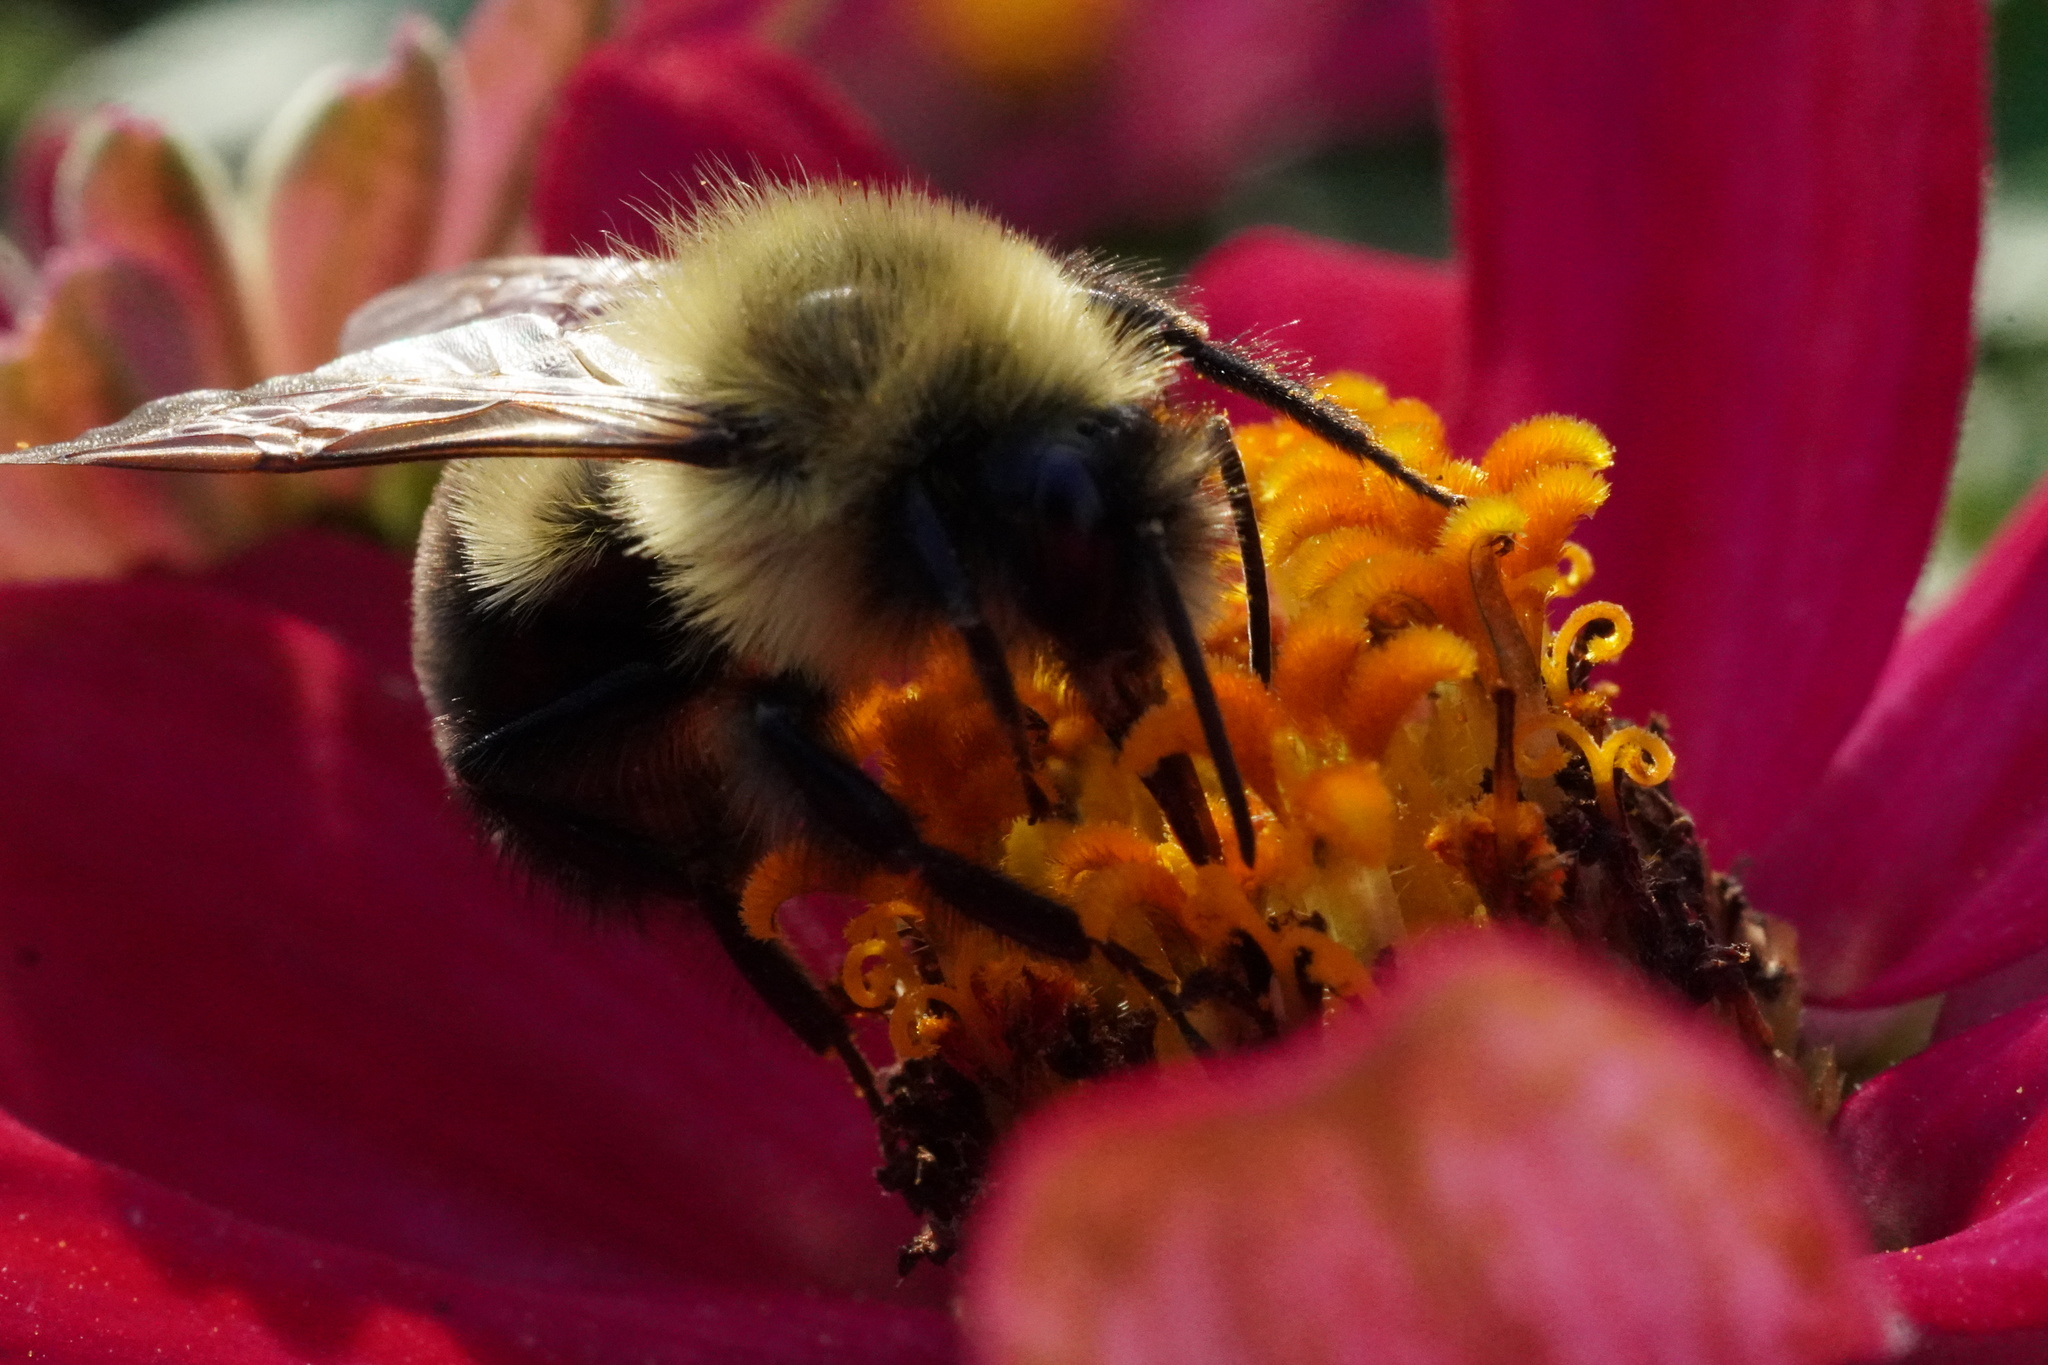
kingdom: Animalia
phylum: Arthropoda
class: Insecta
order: Hymenoptera
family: Apidae
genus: Bombus
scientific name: Bombus impatiens
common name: Common eastern bumble bee
